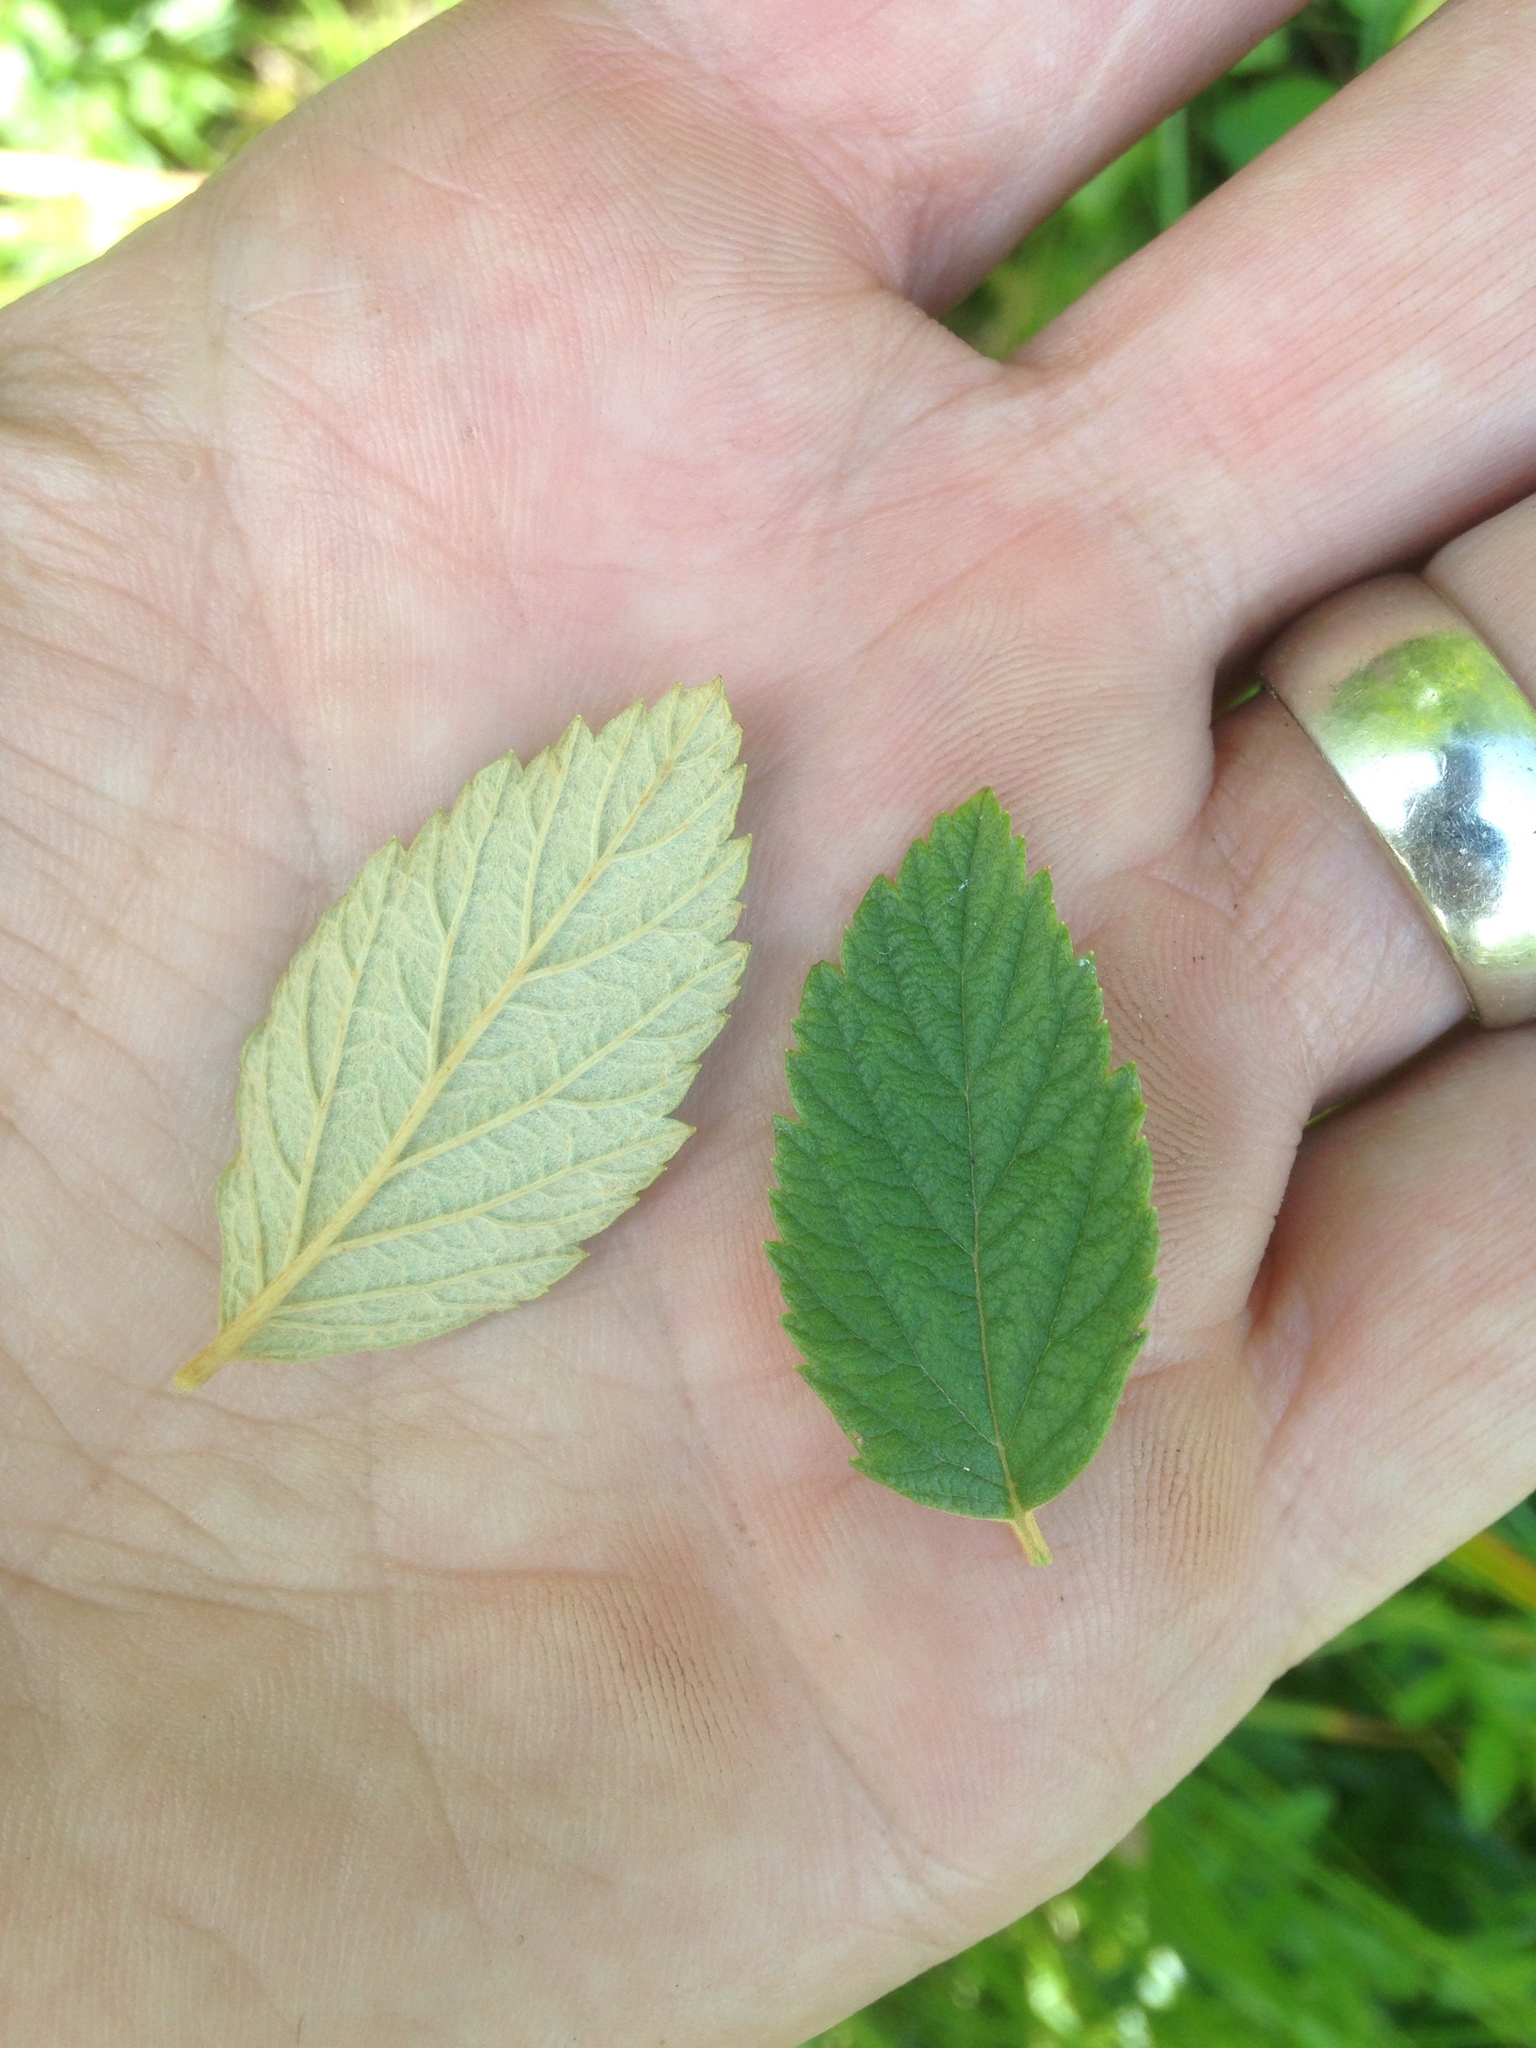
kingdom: Plantae
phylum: Tracheophyta
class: Magnoliopsida
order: Rosales
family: Rosaceae
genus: Spiraea
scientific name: Spiraea tomentosa
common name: Hardhack
